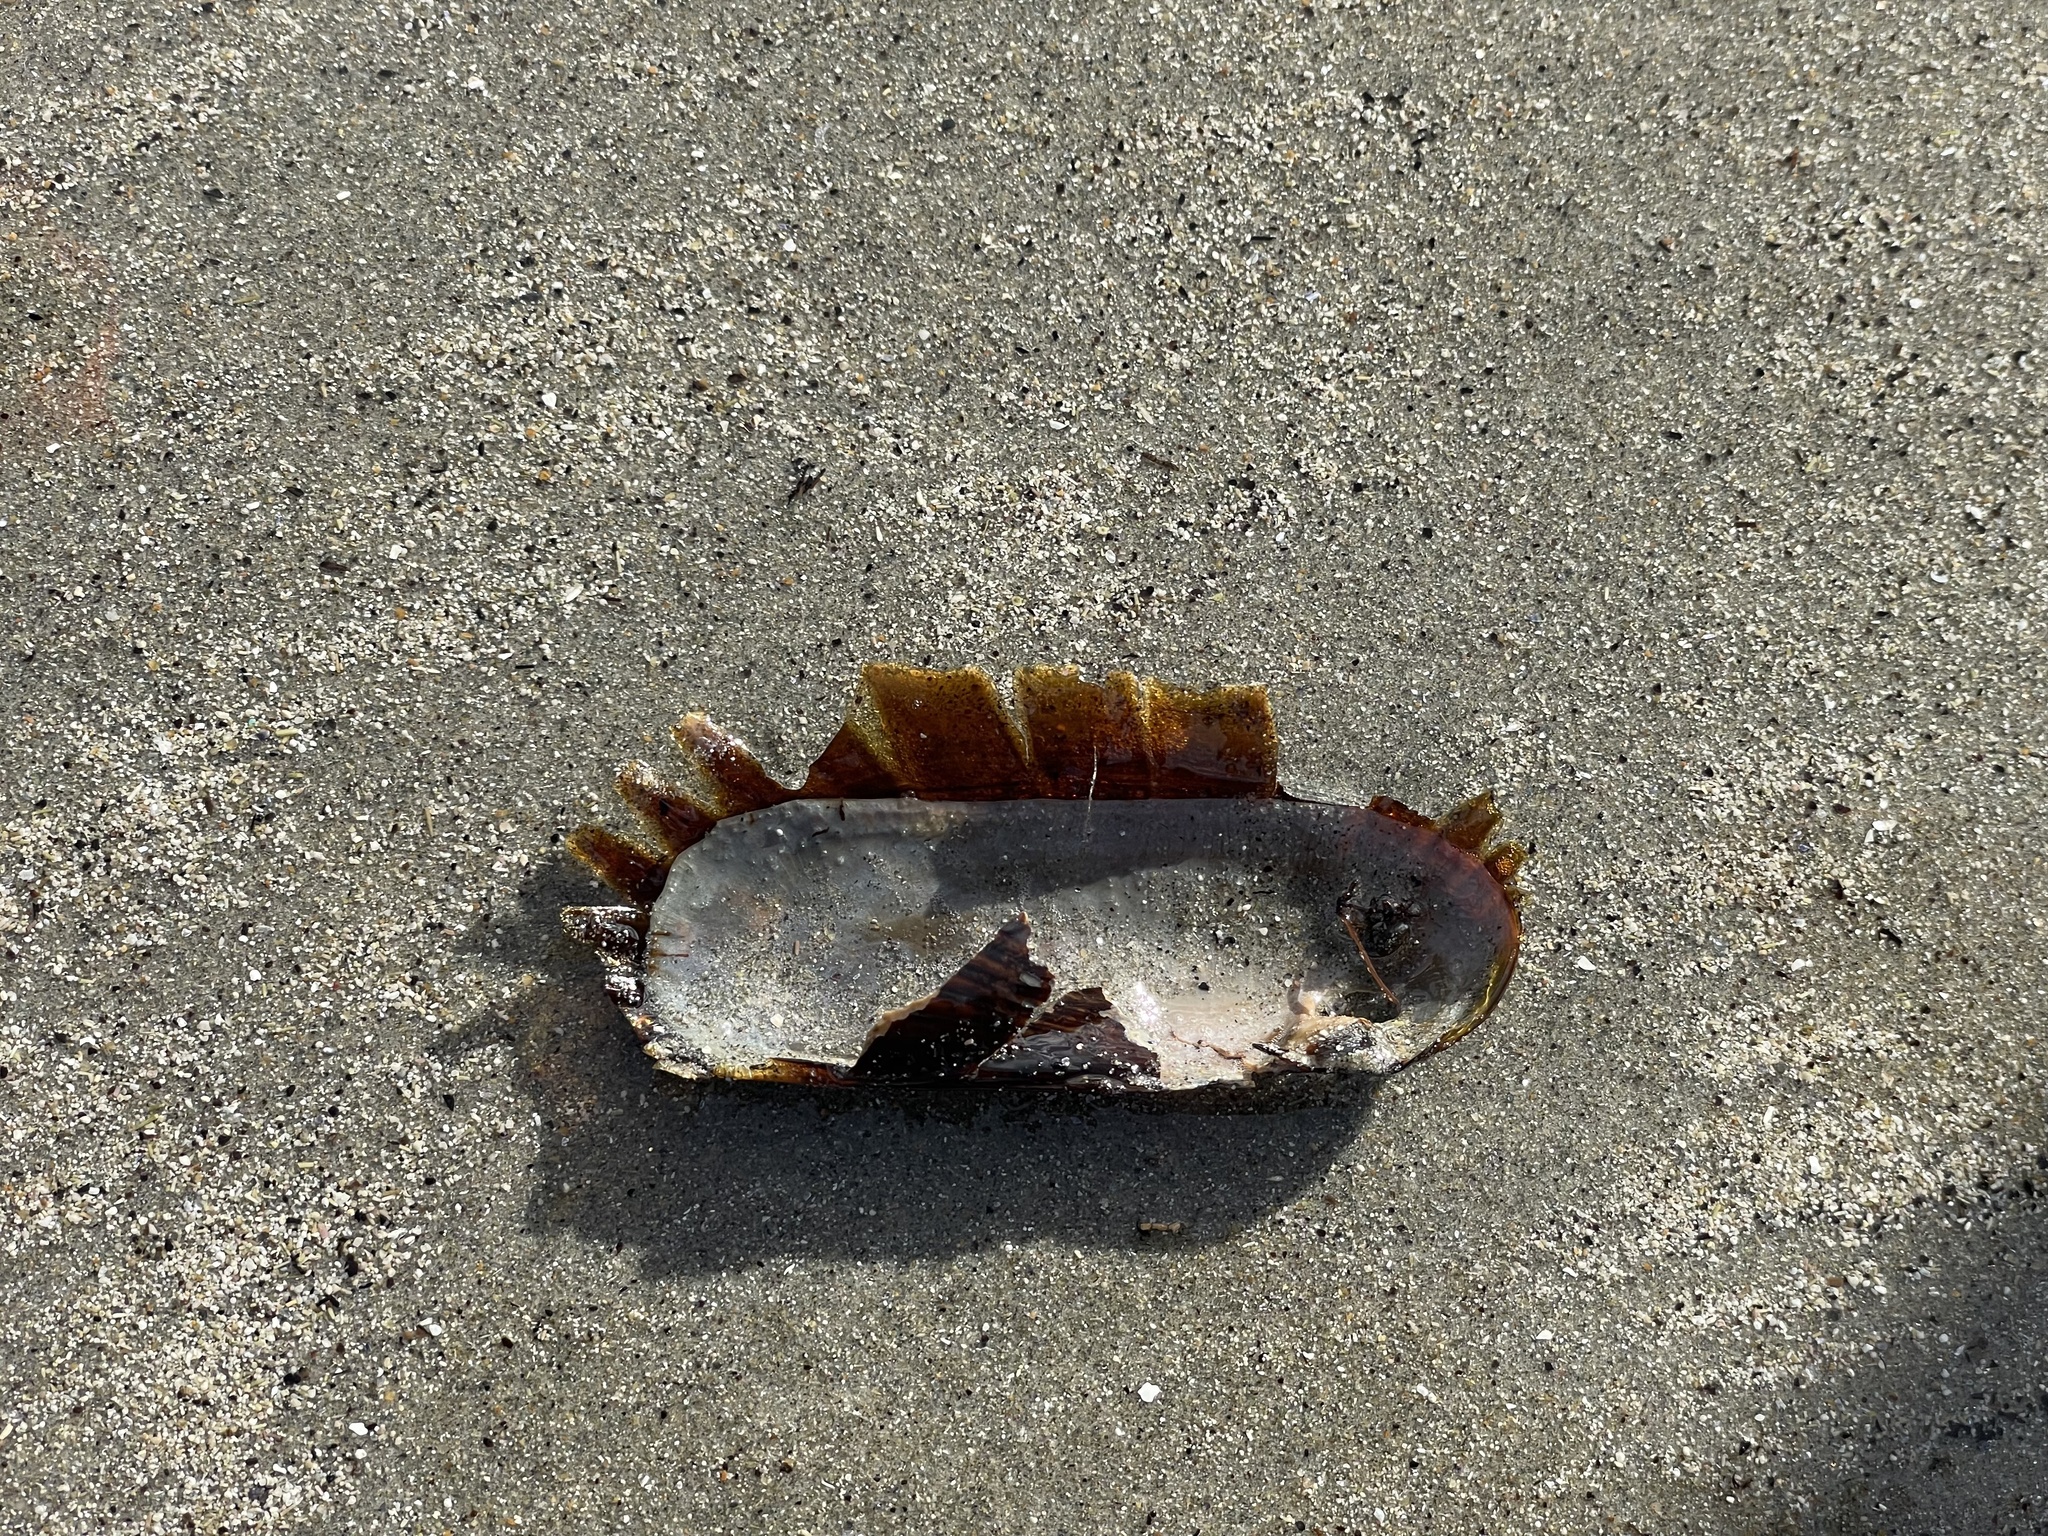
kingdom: Animalia
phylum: Mollusca
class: Bivalvia
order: Solemyida
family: Solemyidae
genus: Petrasma
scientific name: Petrasma borealis
